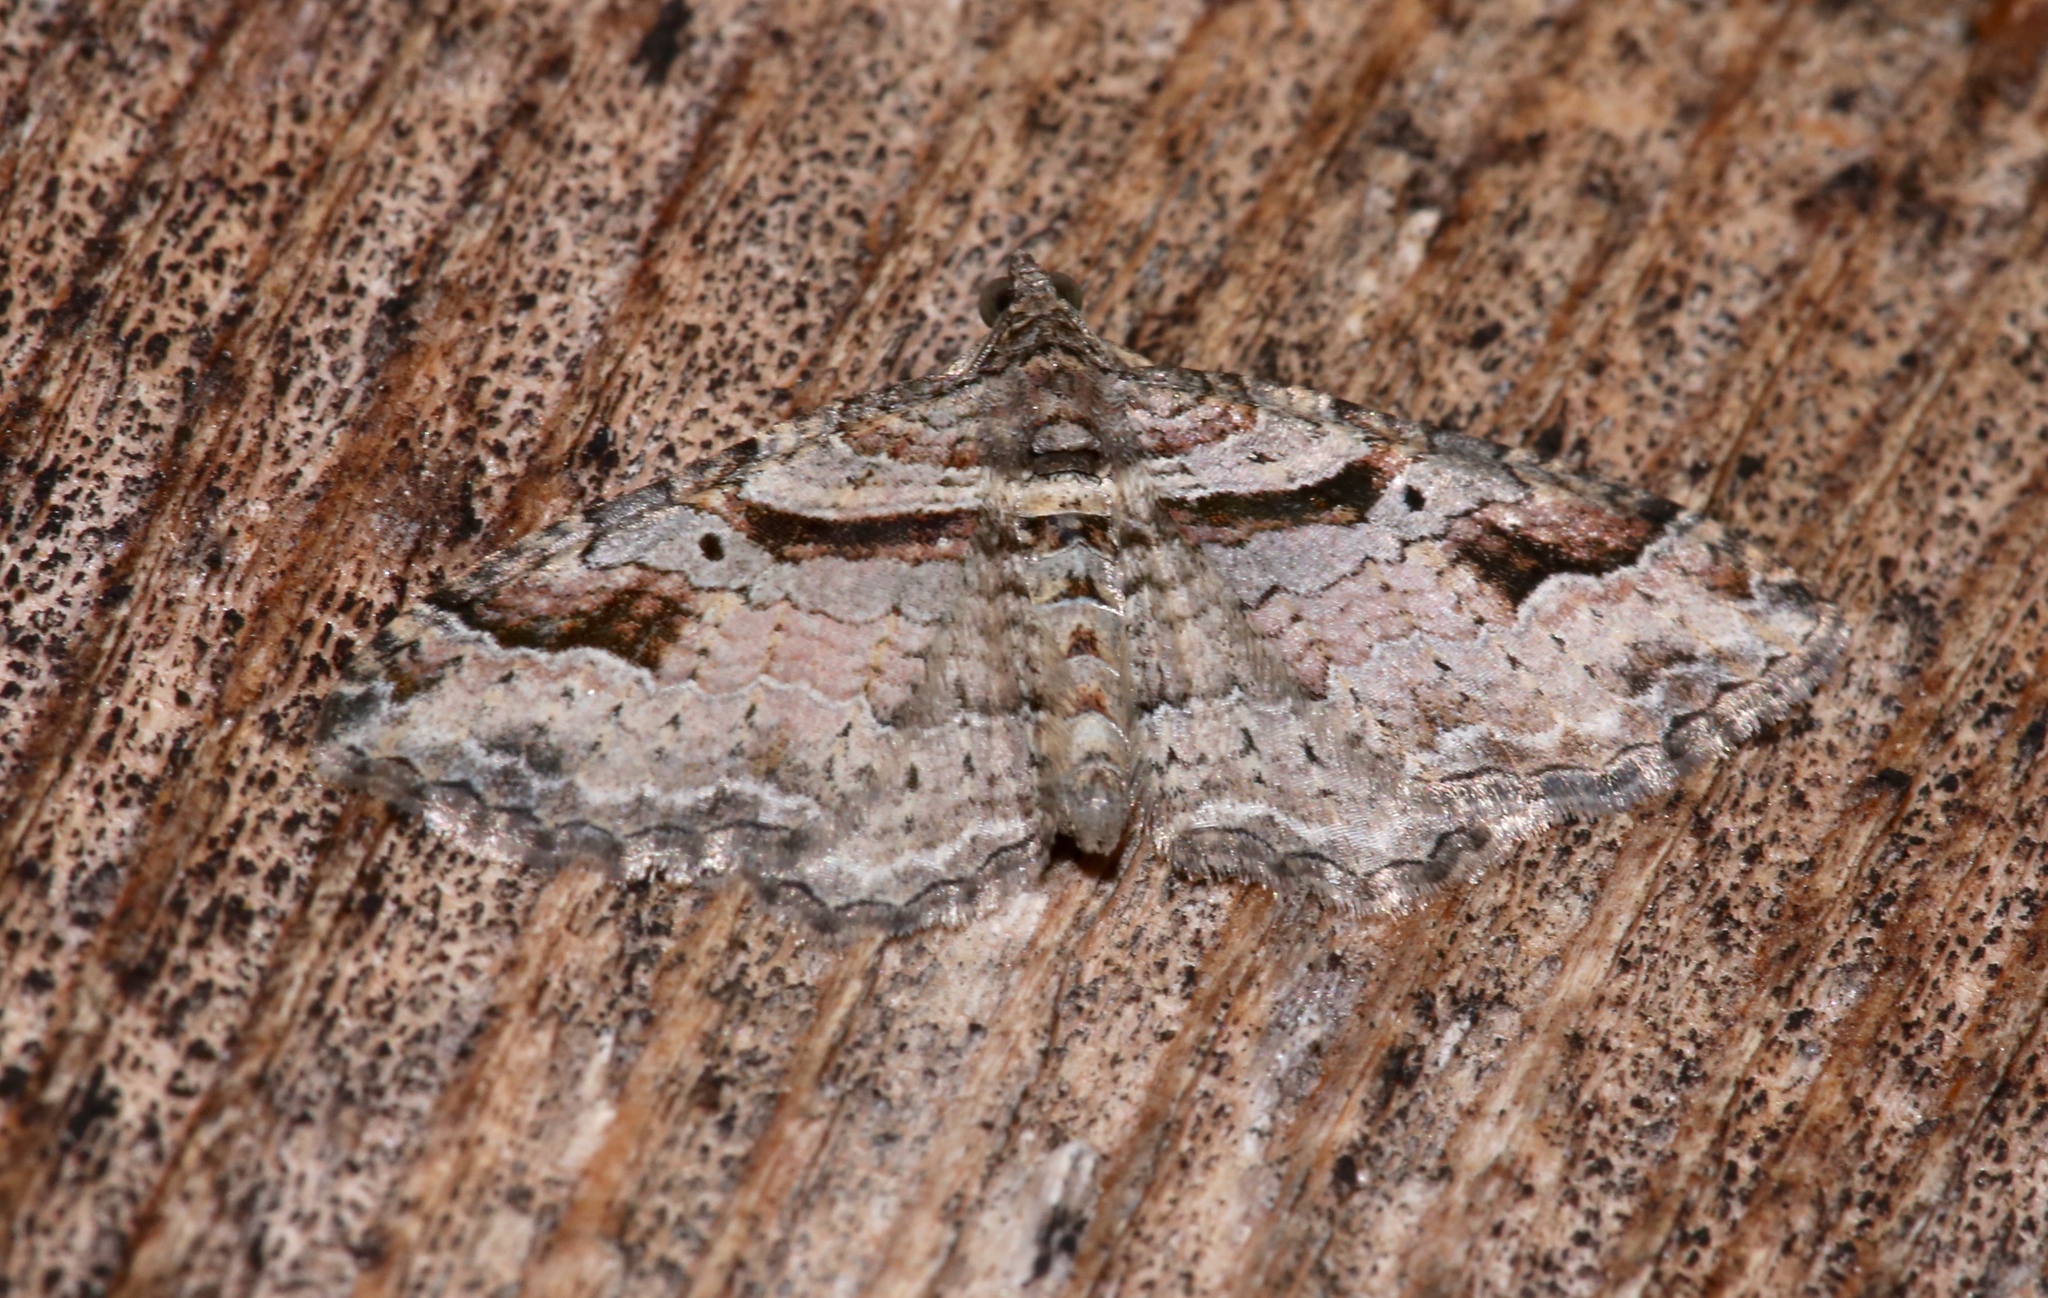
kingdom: Animalia
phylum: Arthropoda
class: Insecta
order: Lepidoptera
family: Geometridae
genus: Costaconvexa
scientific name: Costaconvexa centrostrigaria
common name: Bent-line carpet
